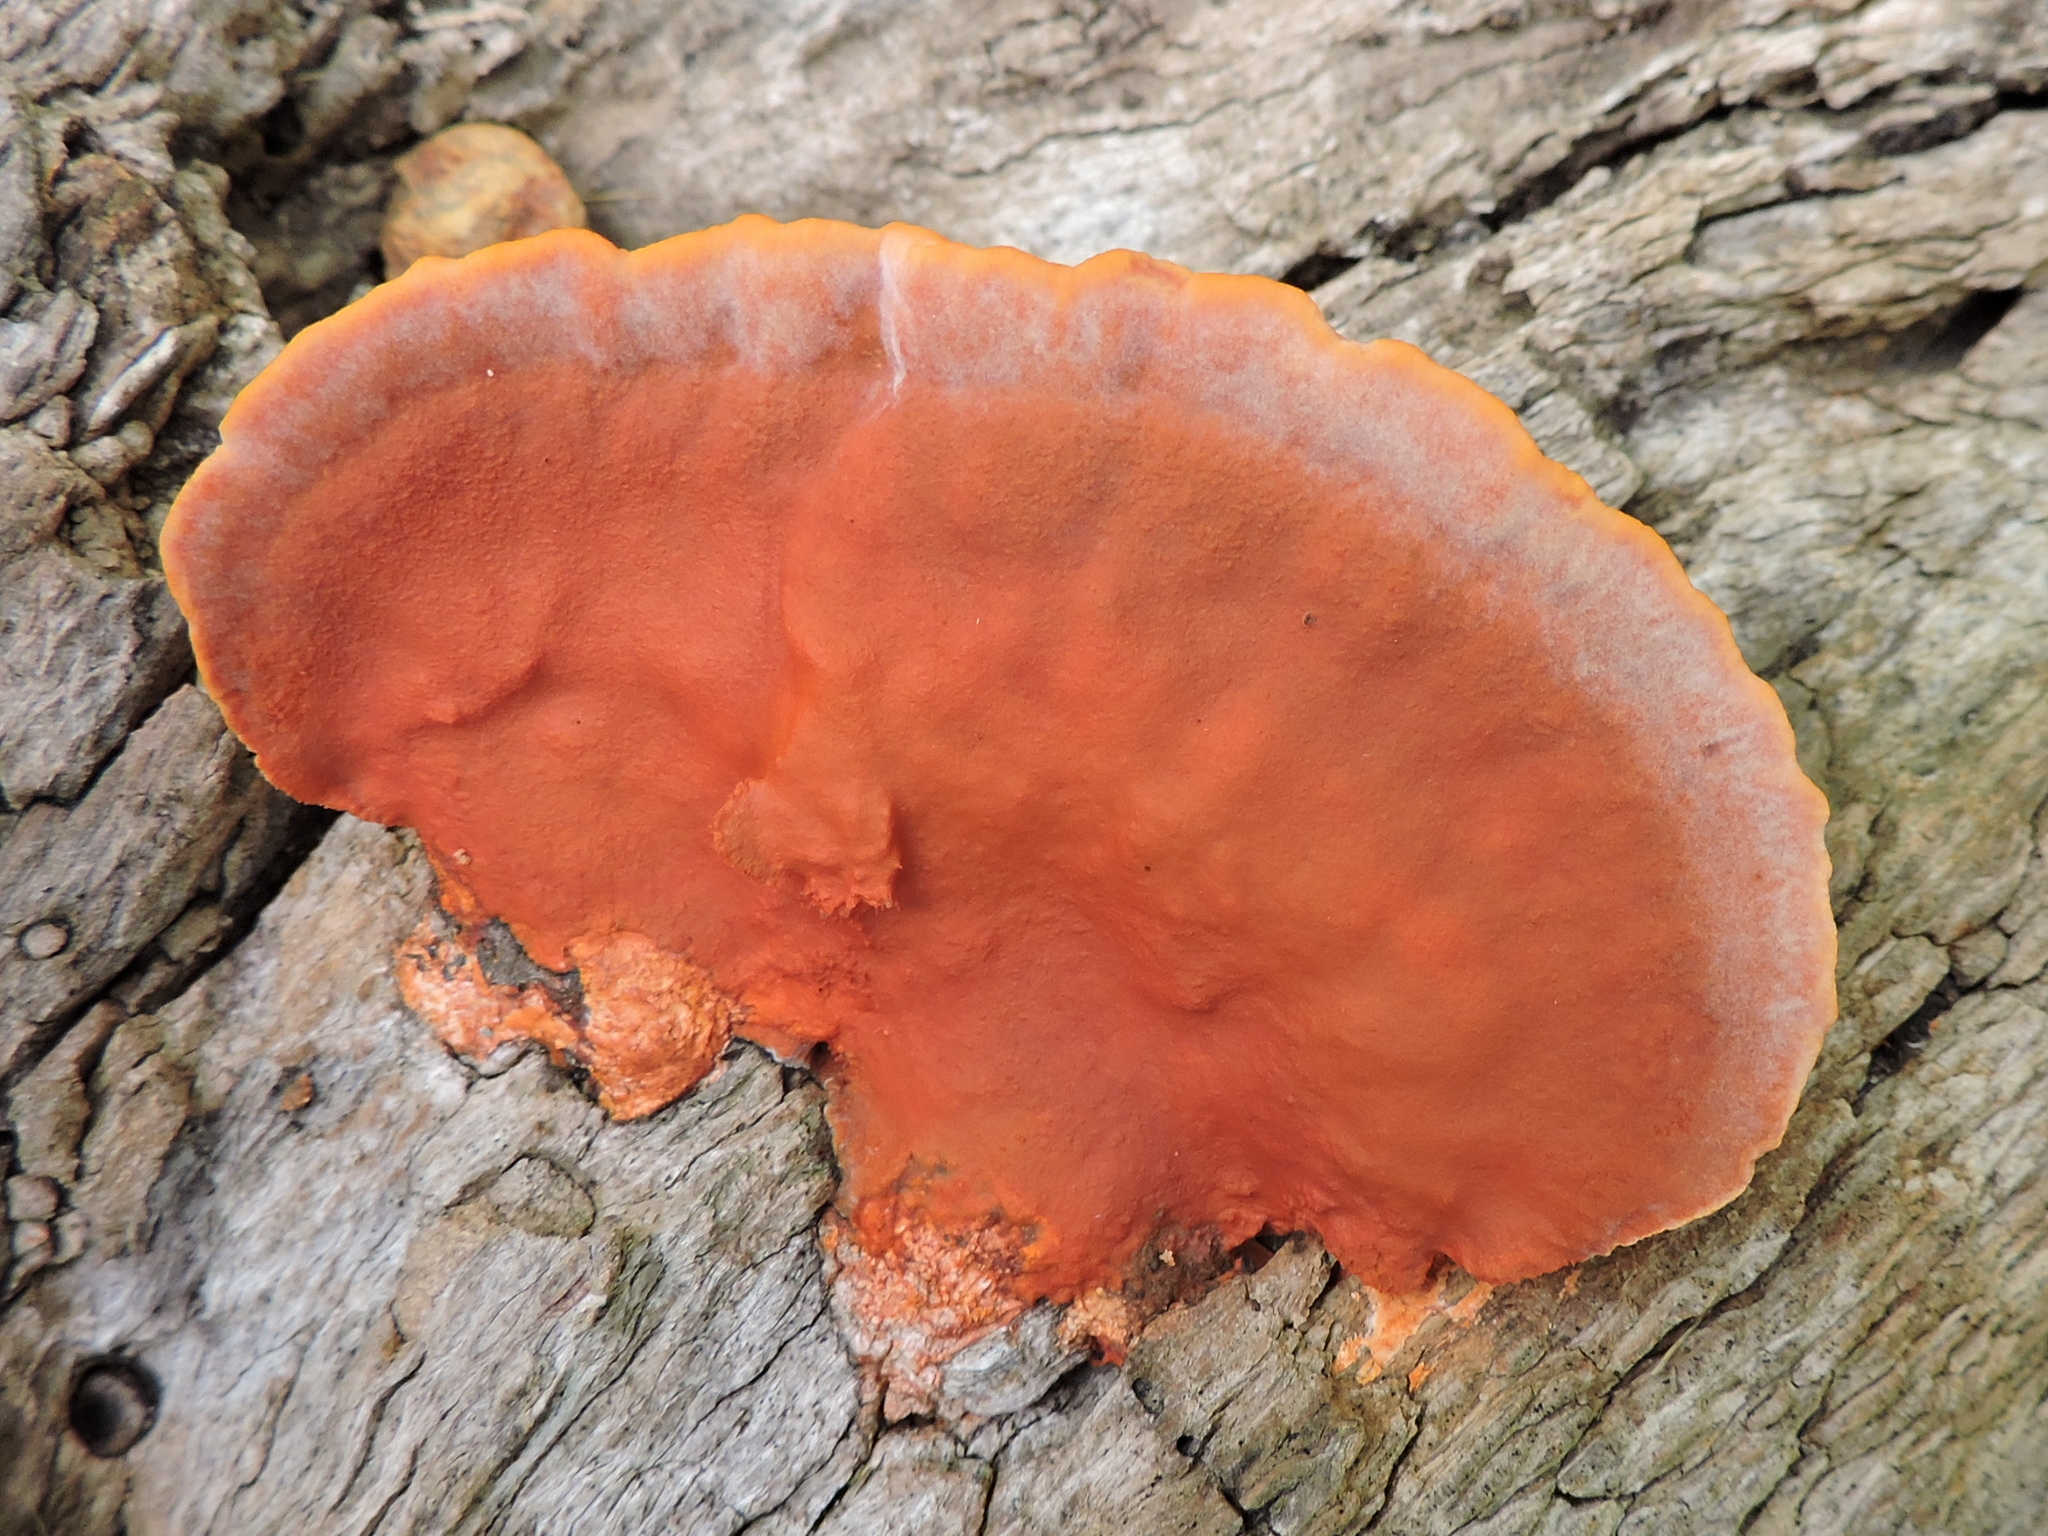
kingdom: Fungi
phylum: Basidiomycota
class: Agaricomycetes
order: Polyporales
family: Polyporaceae
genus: Trametes
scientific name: Trametes cinnabarina
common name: Northern cinnabar polypore
